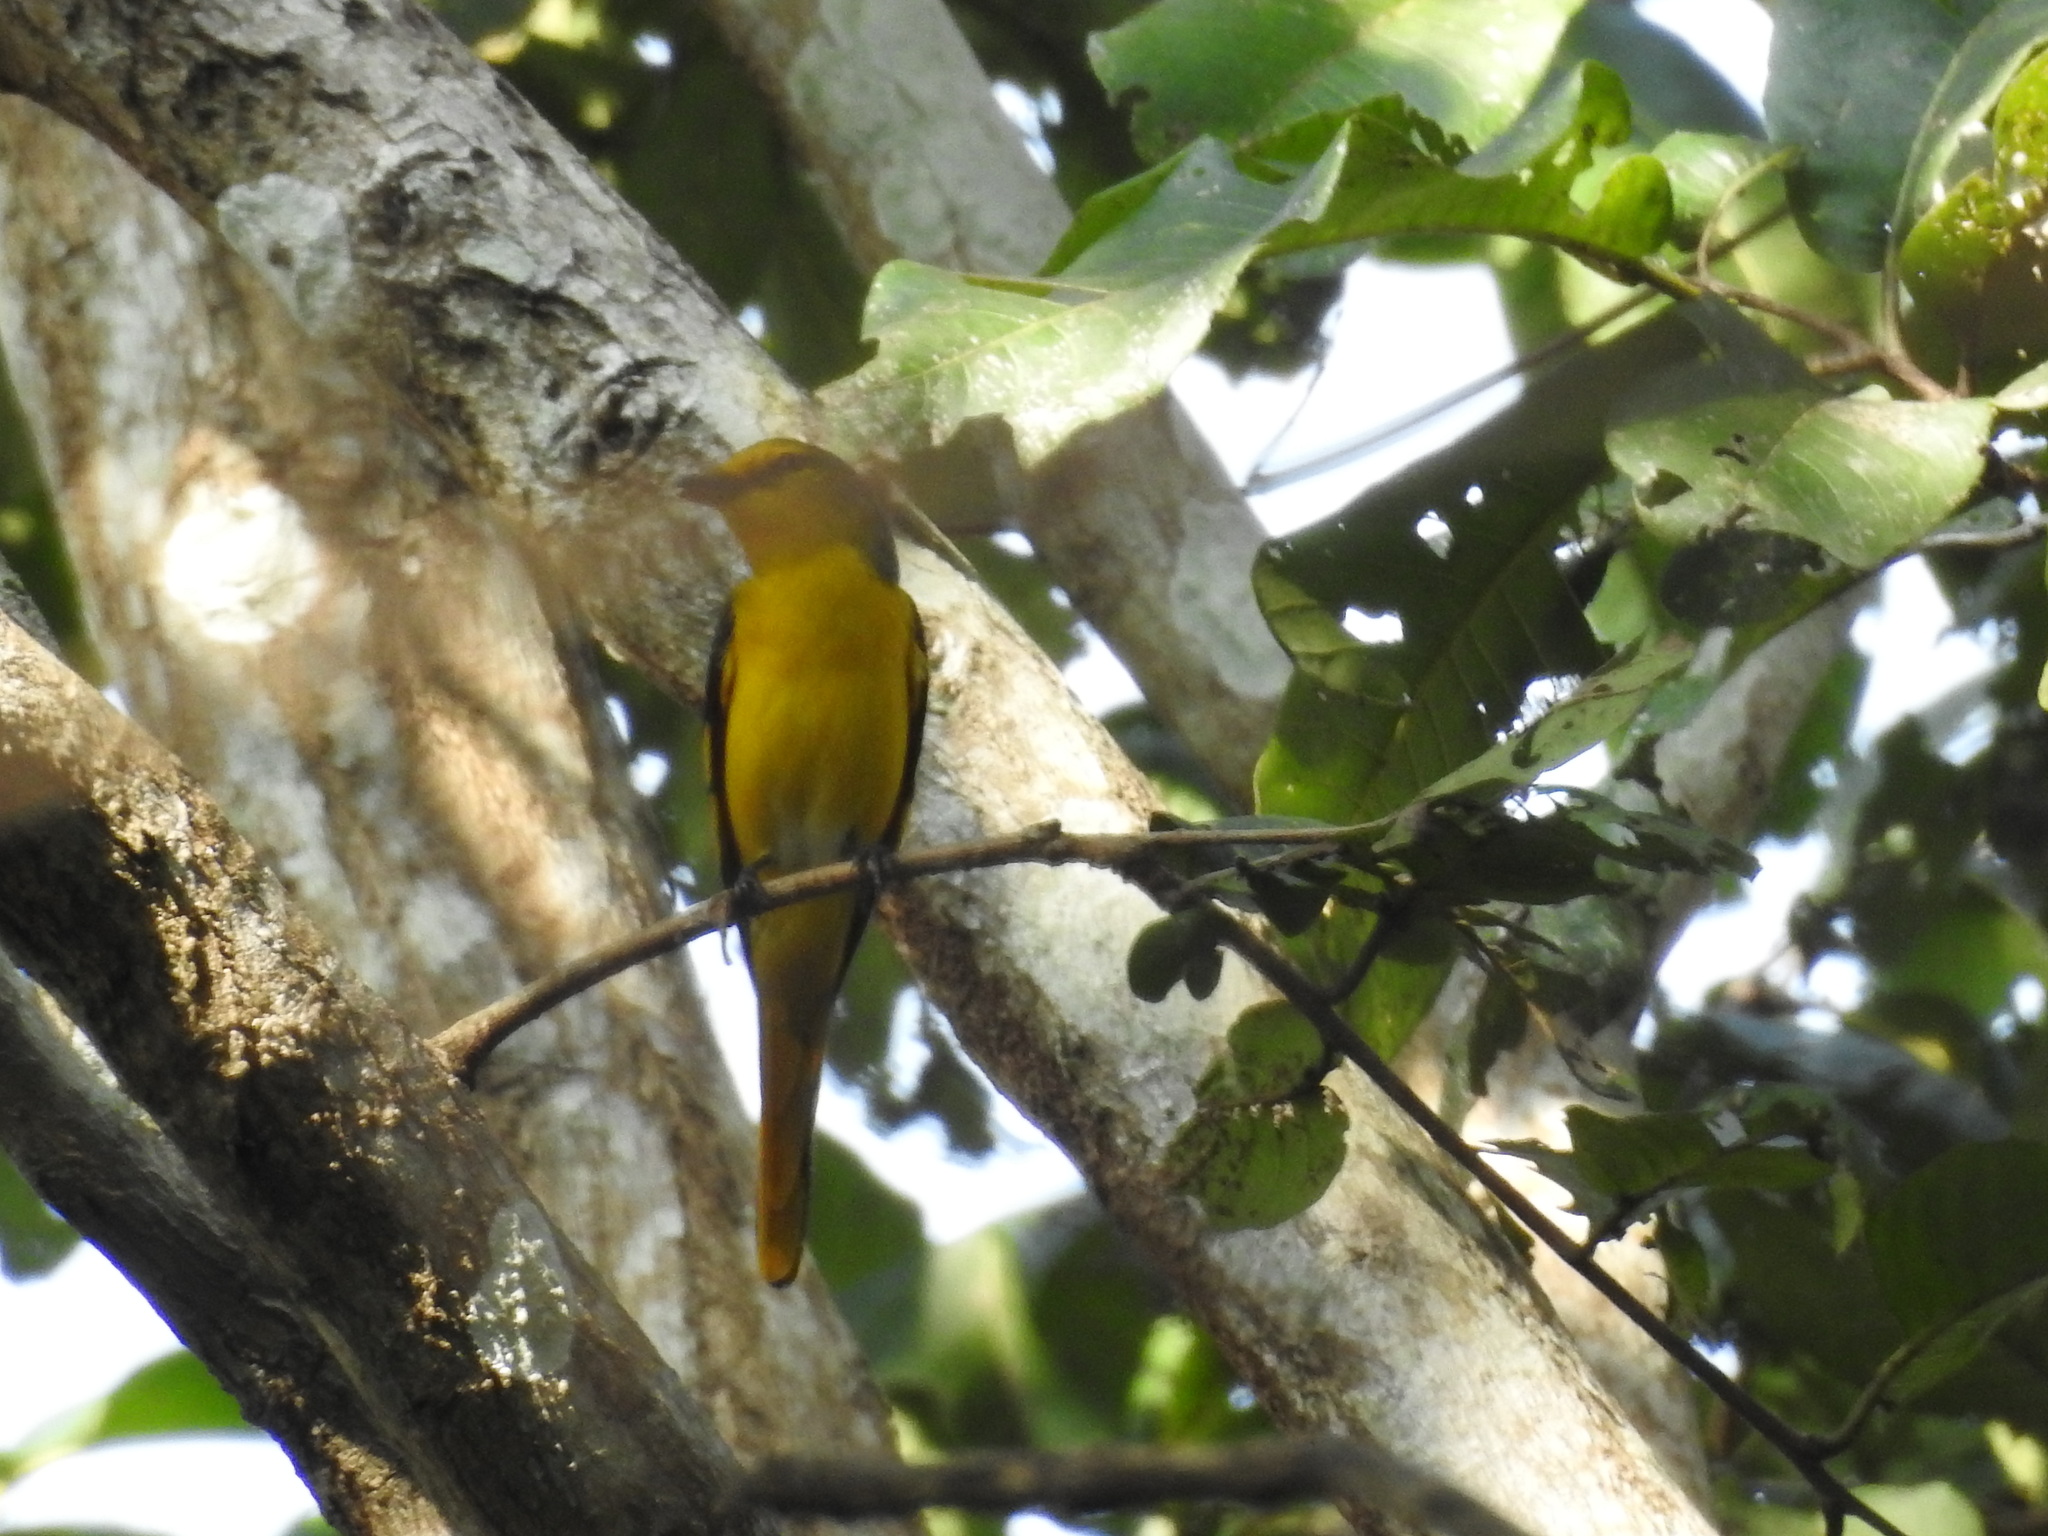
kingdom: Animalia
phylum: Chordata
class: Aves
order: Passeriformes
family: Campephagidae
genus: Pericrocotus
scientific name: Pericrocotus speciosus
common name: Scarlet minivet
